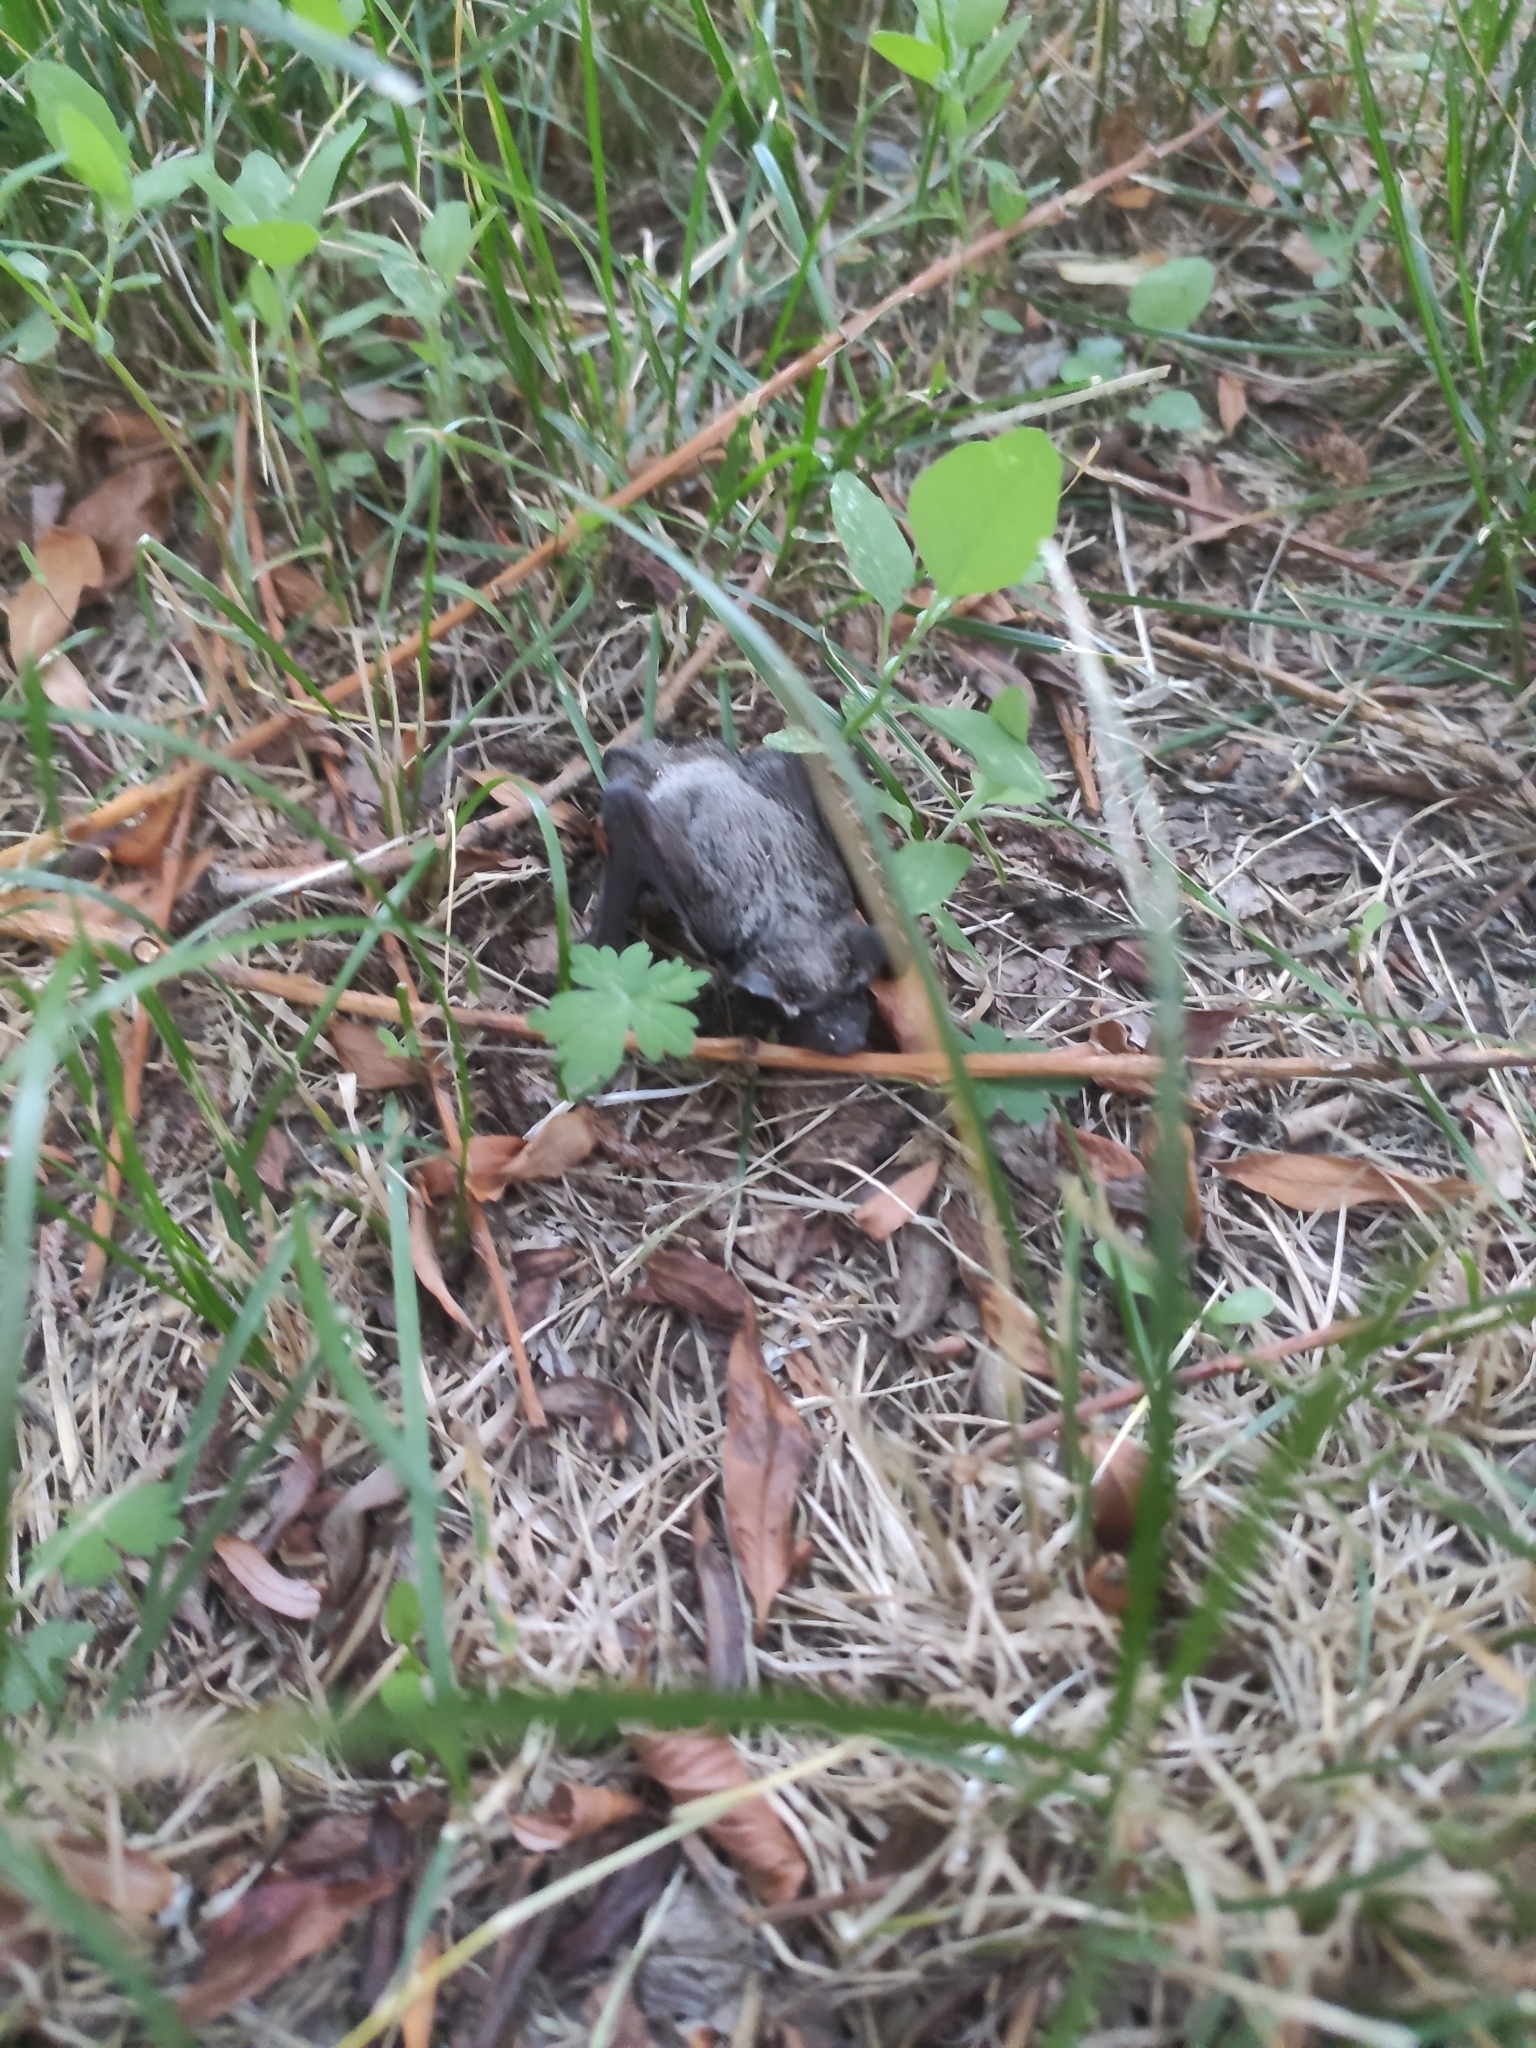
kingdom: Animalia
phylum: Chordata
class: Mammalia
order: Chiroptera
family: Vespertilionidae
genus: Vespertilio
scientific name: Vespertilio murinus
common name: Particolored bat
